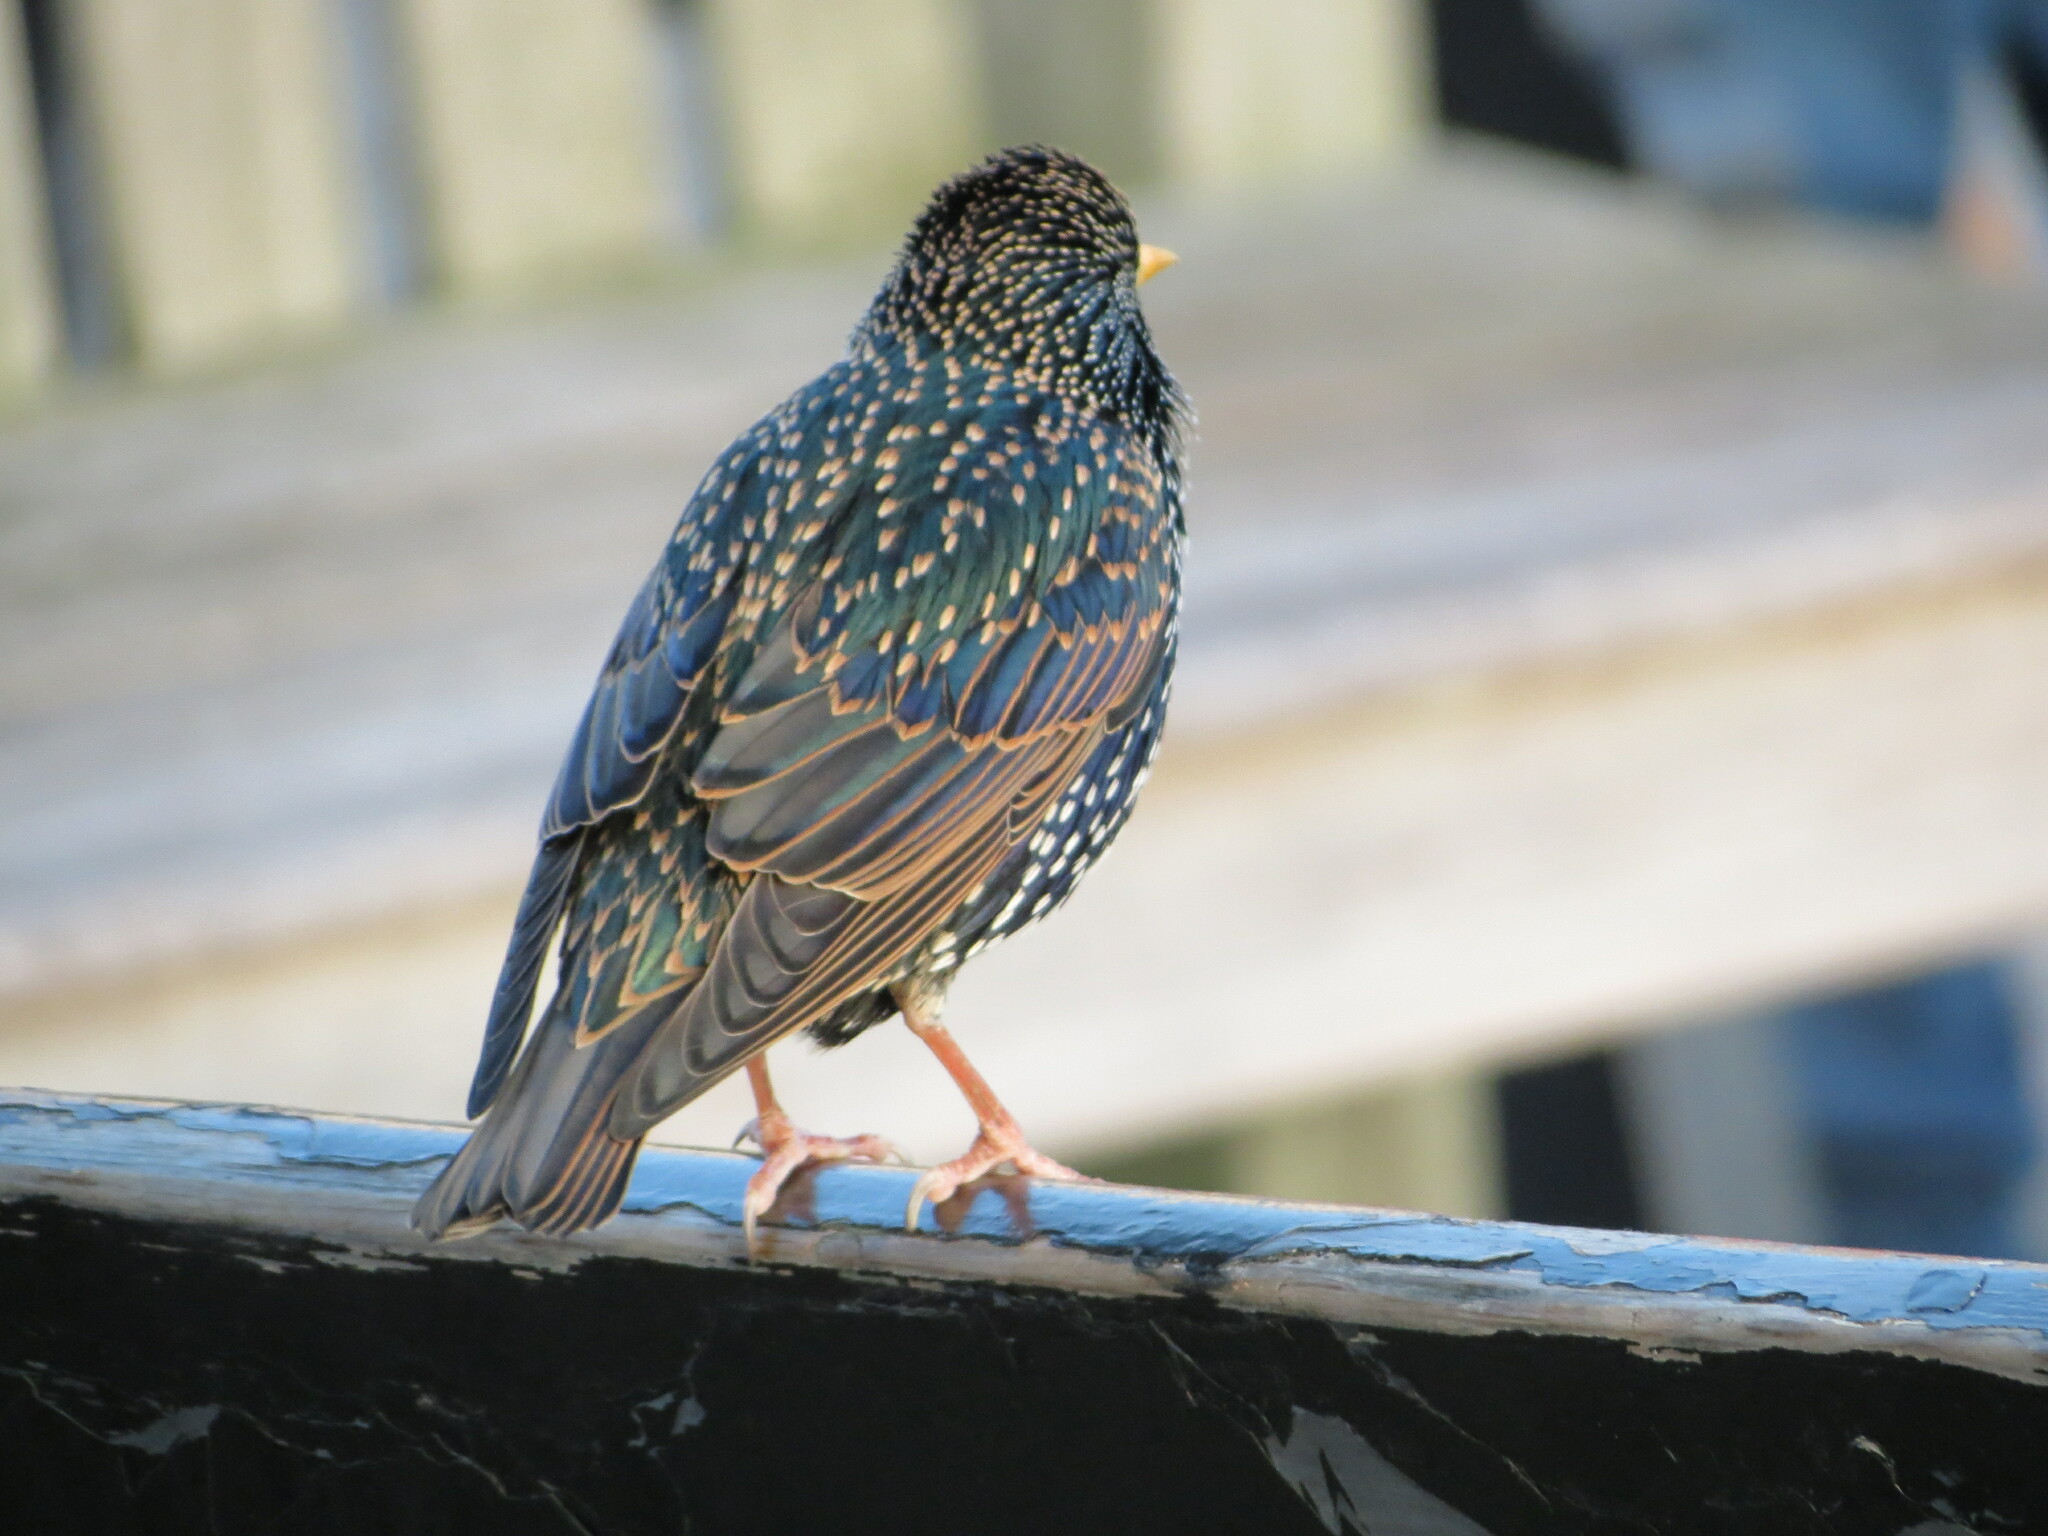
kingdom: Animalia
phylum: Chordata
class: Aves
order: Passeriformes
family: Sturnidae
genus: Sturnus
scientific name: Sturnus vulgaris
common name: Common starling
